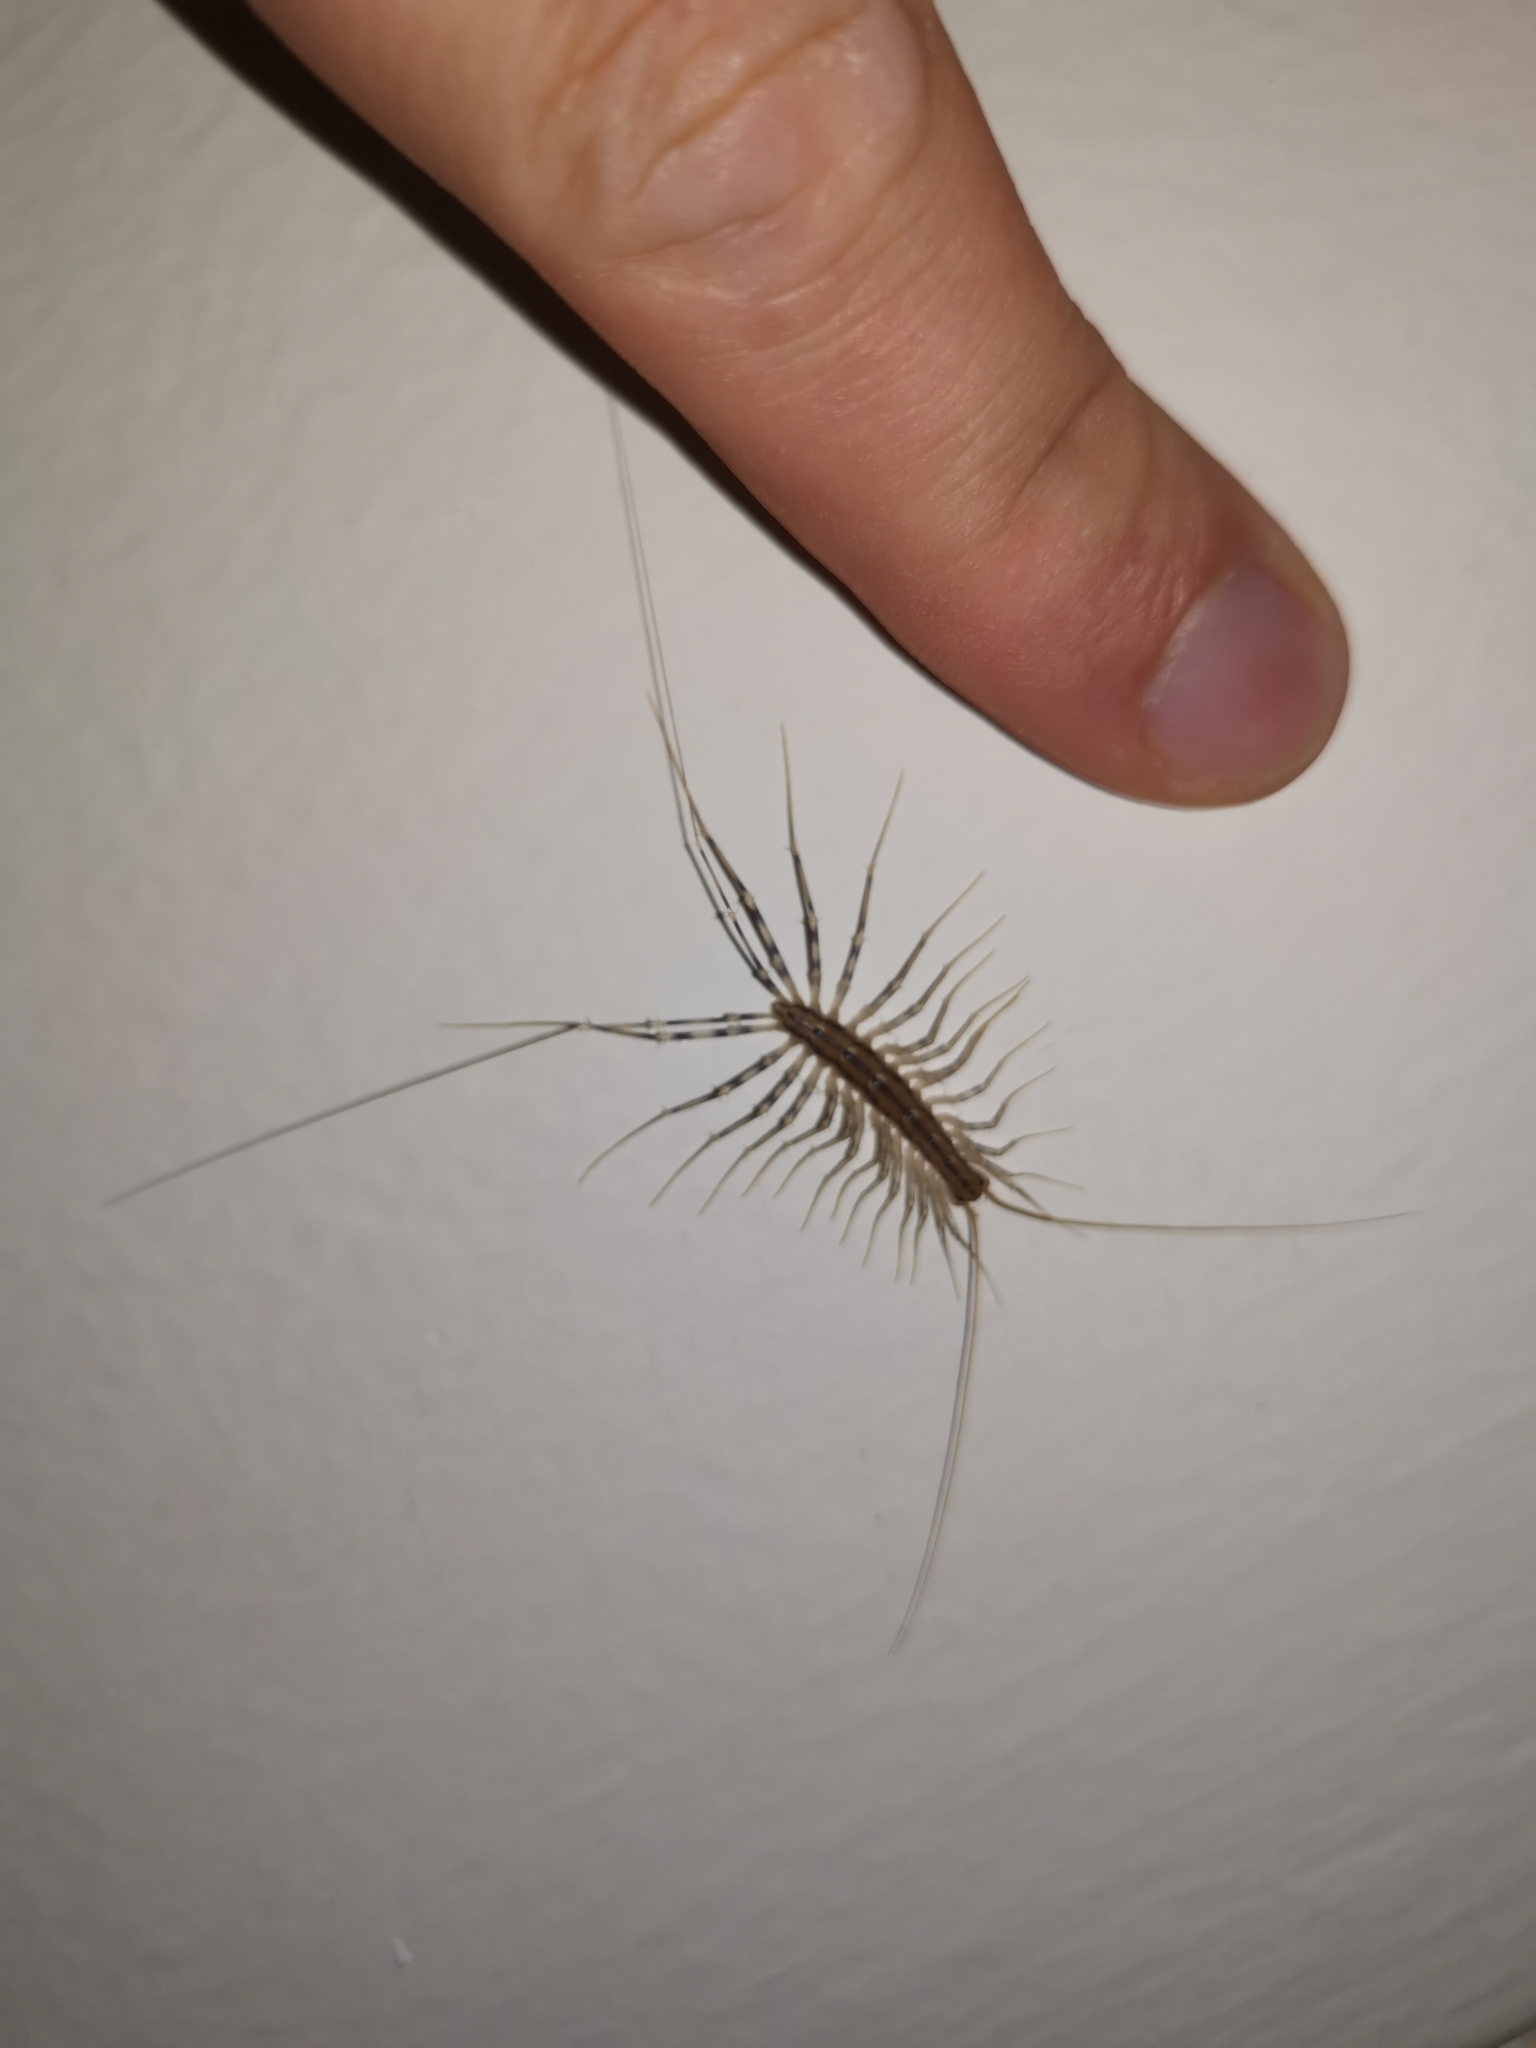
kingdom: Animalia
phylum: Arthropoda
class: Chilopoda
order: Scutigeromorpha
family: Scutigeridae
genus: Scutigera
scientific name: Scutigera coleoptrata
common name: House centipede
